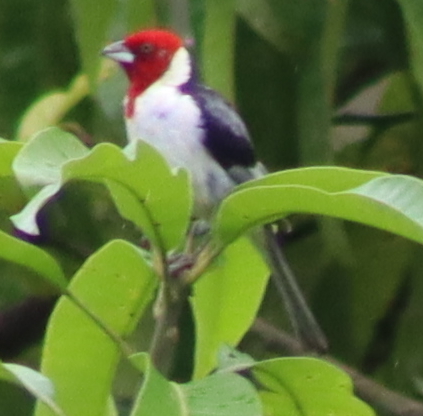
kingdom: Animalia
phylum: Chordata
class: Aves
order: Passeriformes
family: Thraupidae
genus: Paroaria
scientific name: Paroaria dominicana
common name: Red-cowled cardinal
